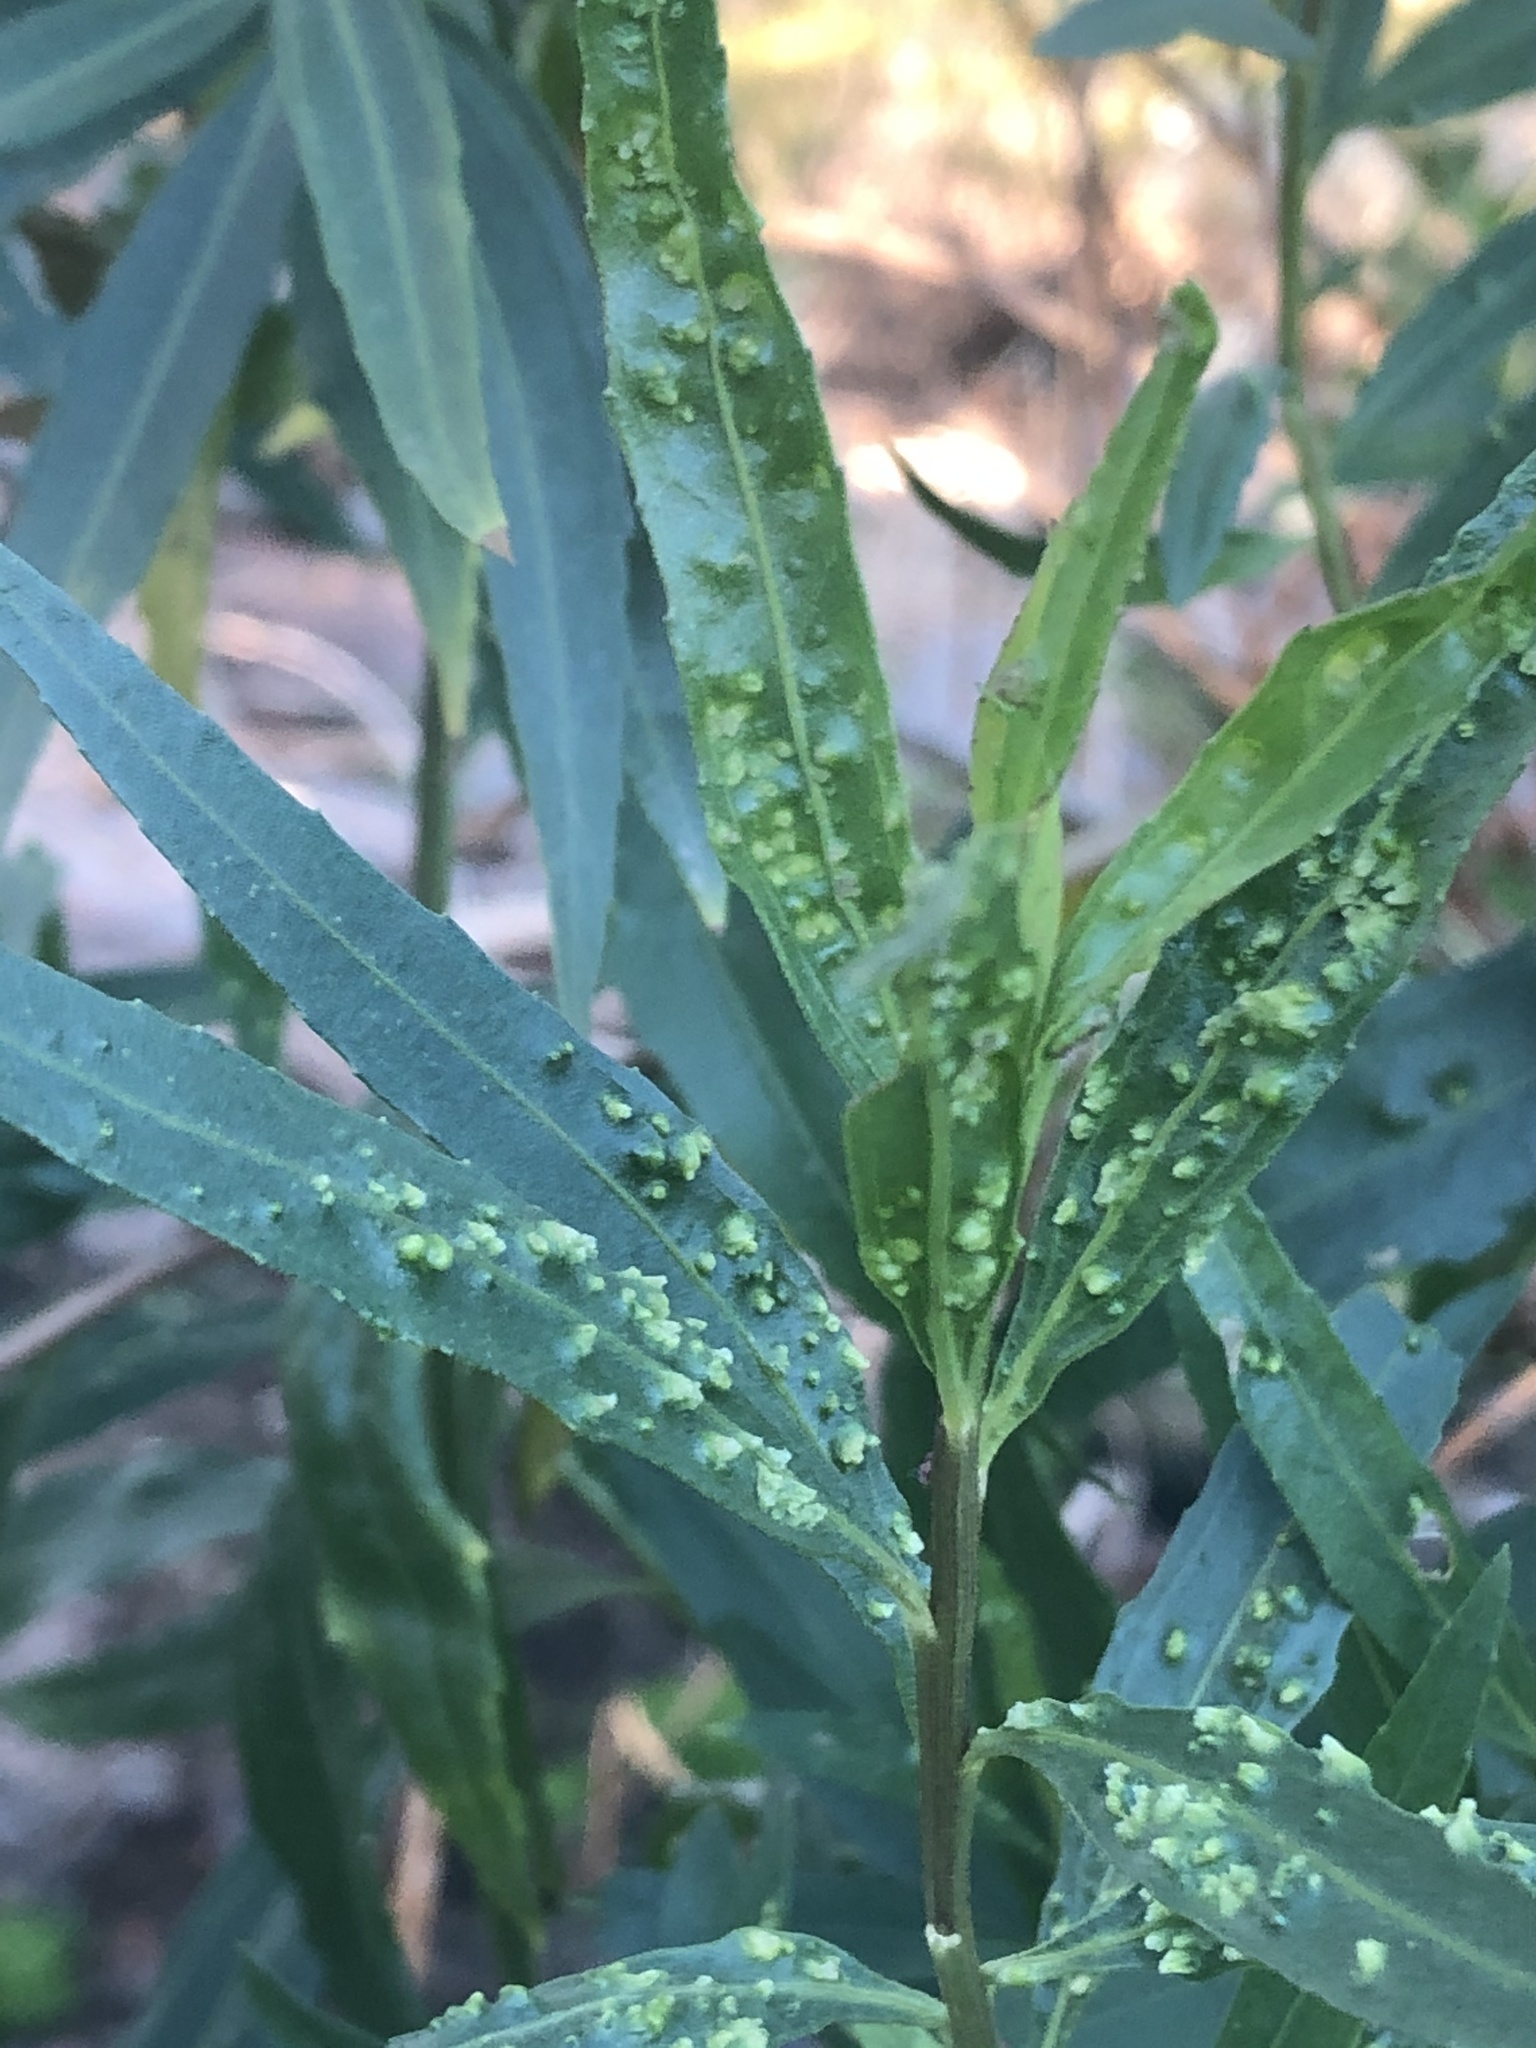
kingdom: Plantae
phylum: Tracheophyta
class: Magnoliopsida
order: Asterales
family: Asteraceae
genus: Baccharis
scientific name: Baccharis salicifolia
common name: Sticky baccharis
